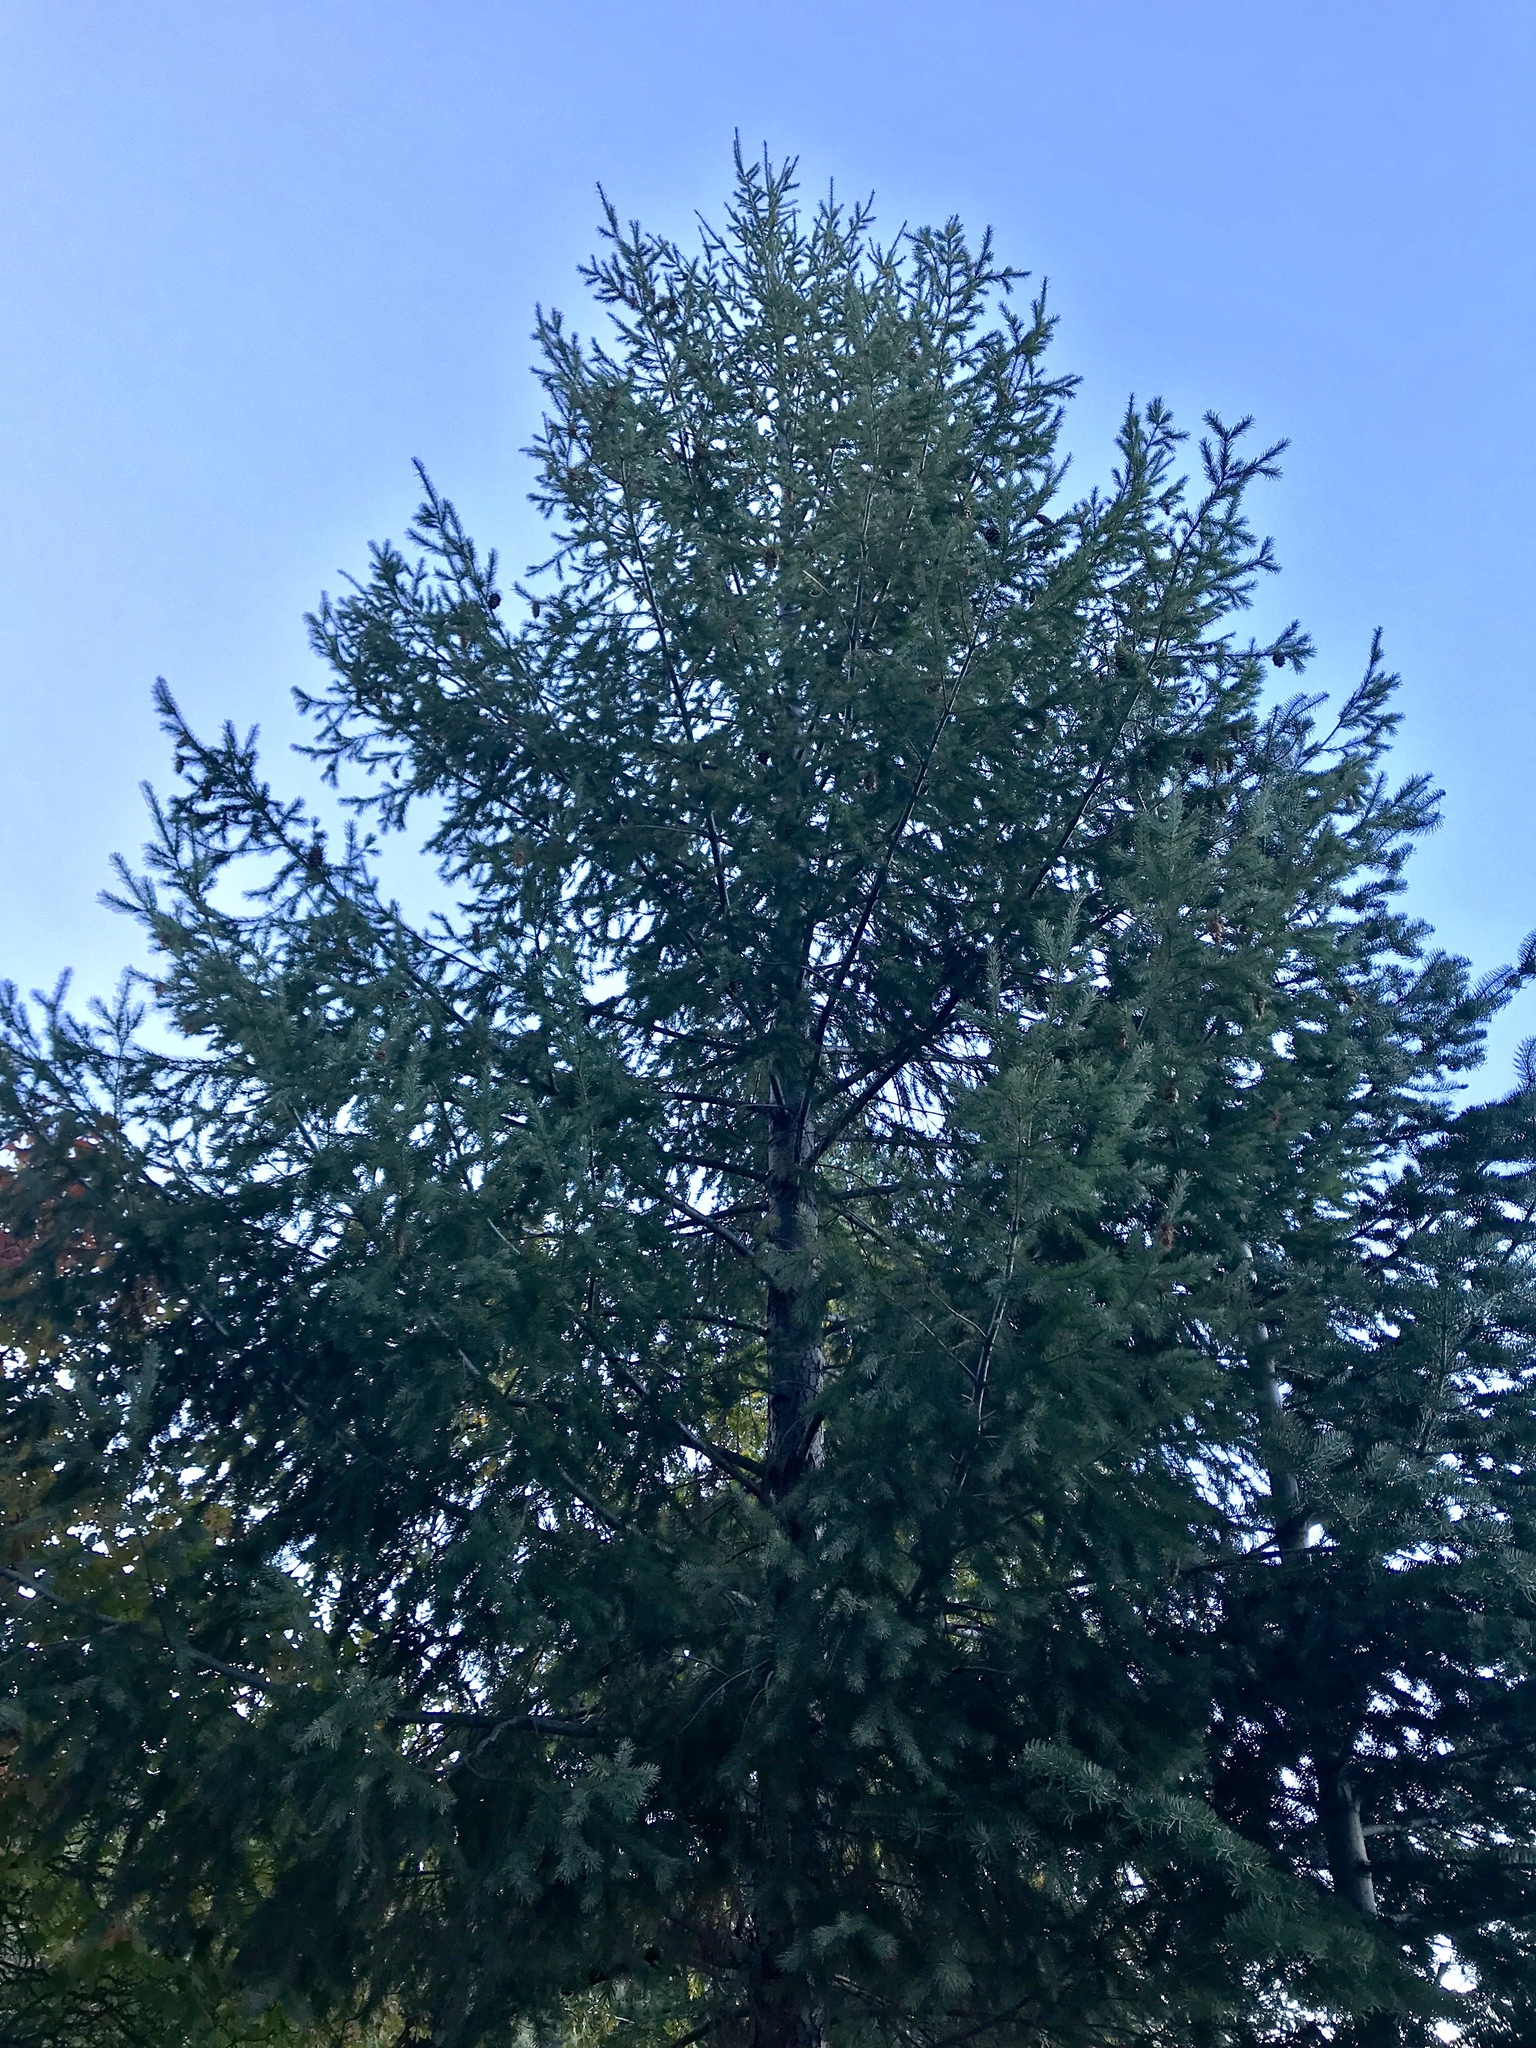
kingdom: Plantae
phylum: Tracheophyta
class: Pinopsida
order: Pinales
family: Pinaceae
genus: Pseudotsuga
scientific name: Pseudotsuga menziesii
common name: Douglas fir
